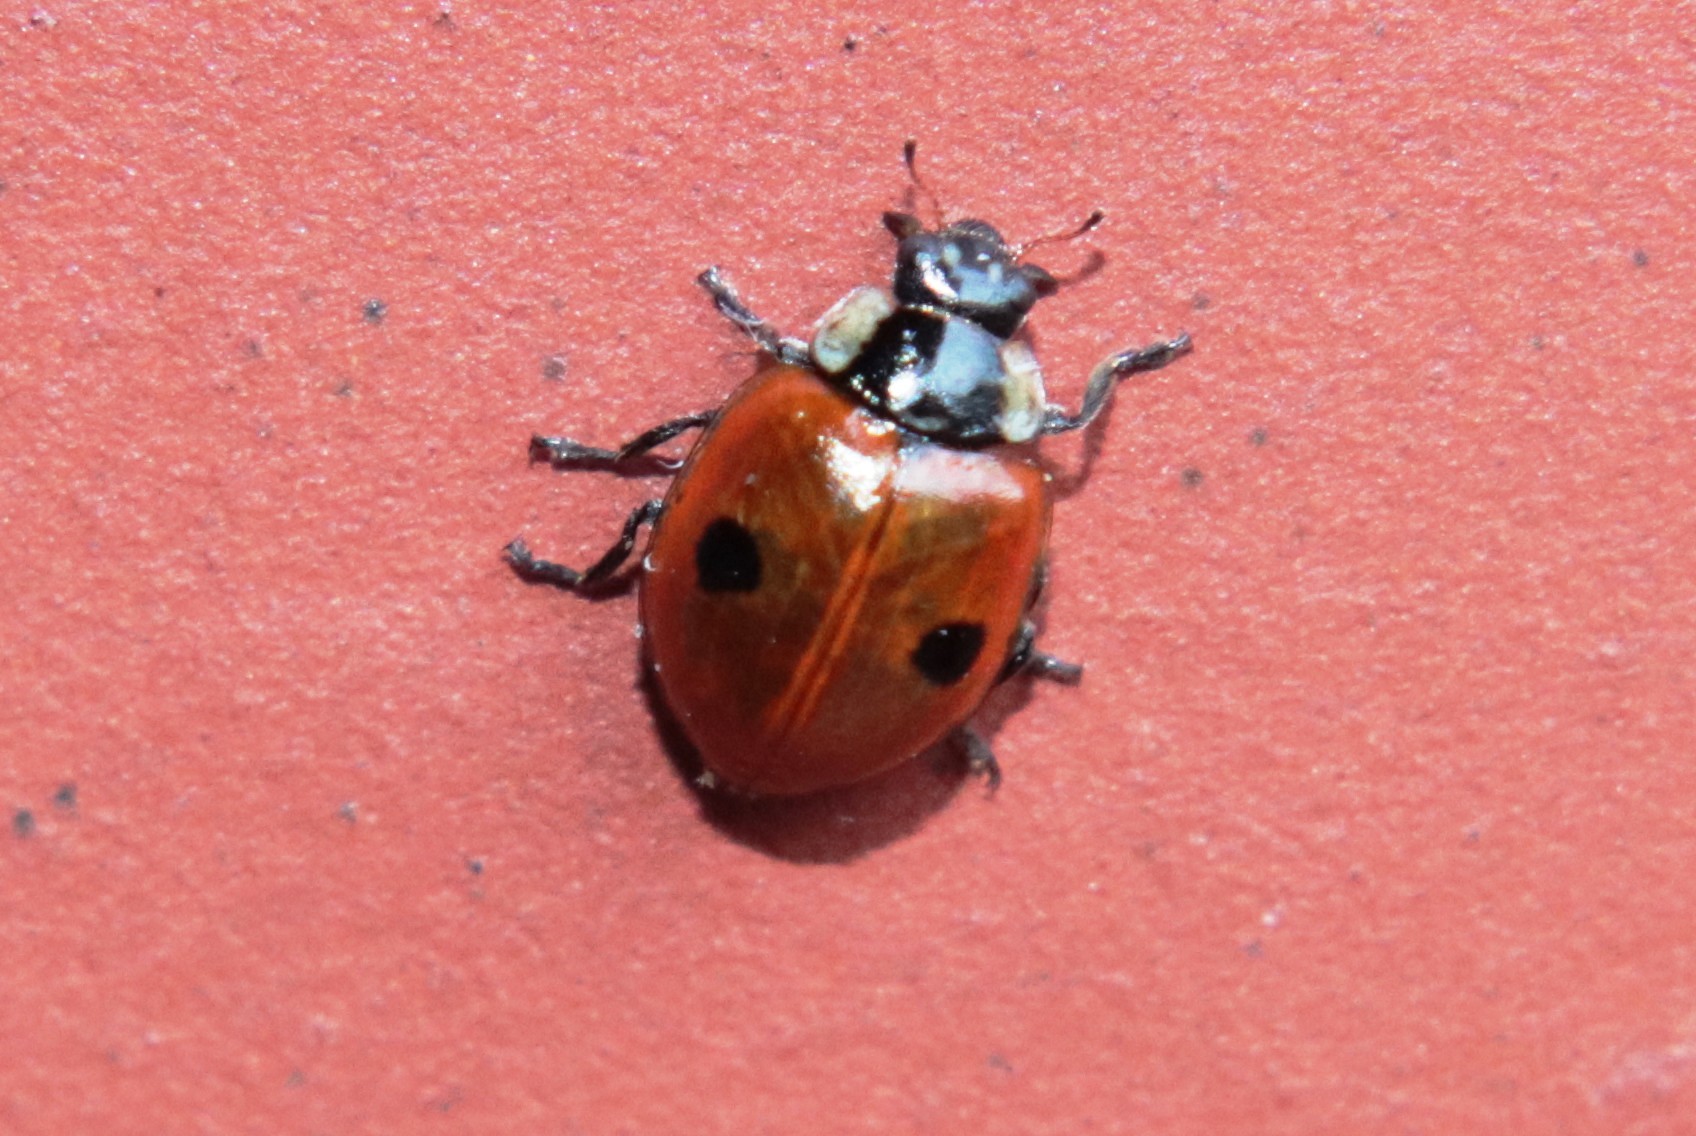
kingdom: Animalia
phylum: Arthropoda
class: Insecta
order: Coleoptera
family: Coccinellidae
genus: Adalia
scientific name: Adalia bipunctata
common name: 2-spot ladybird
